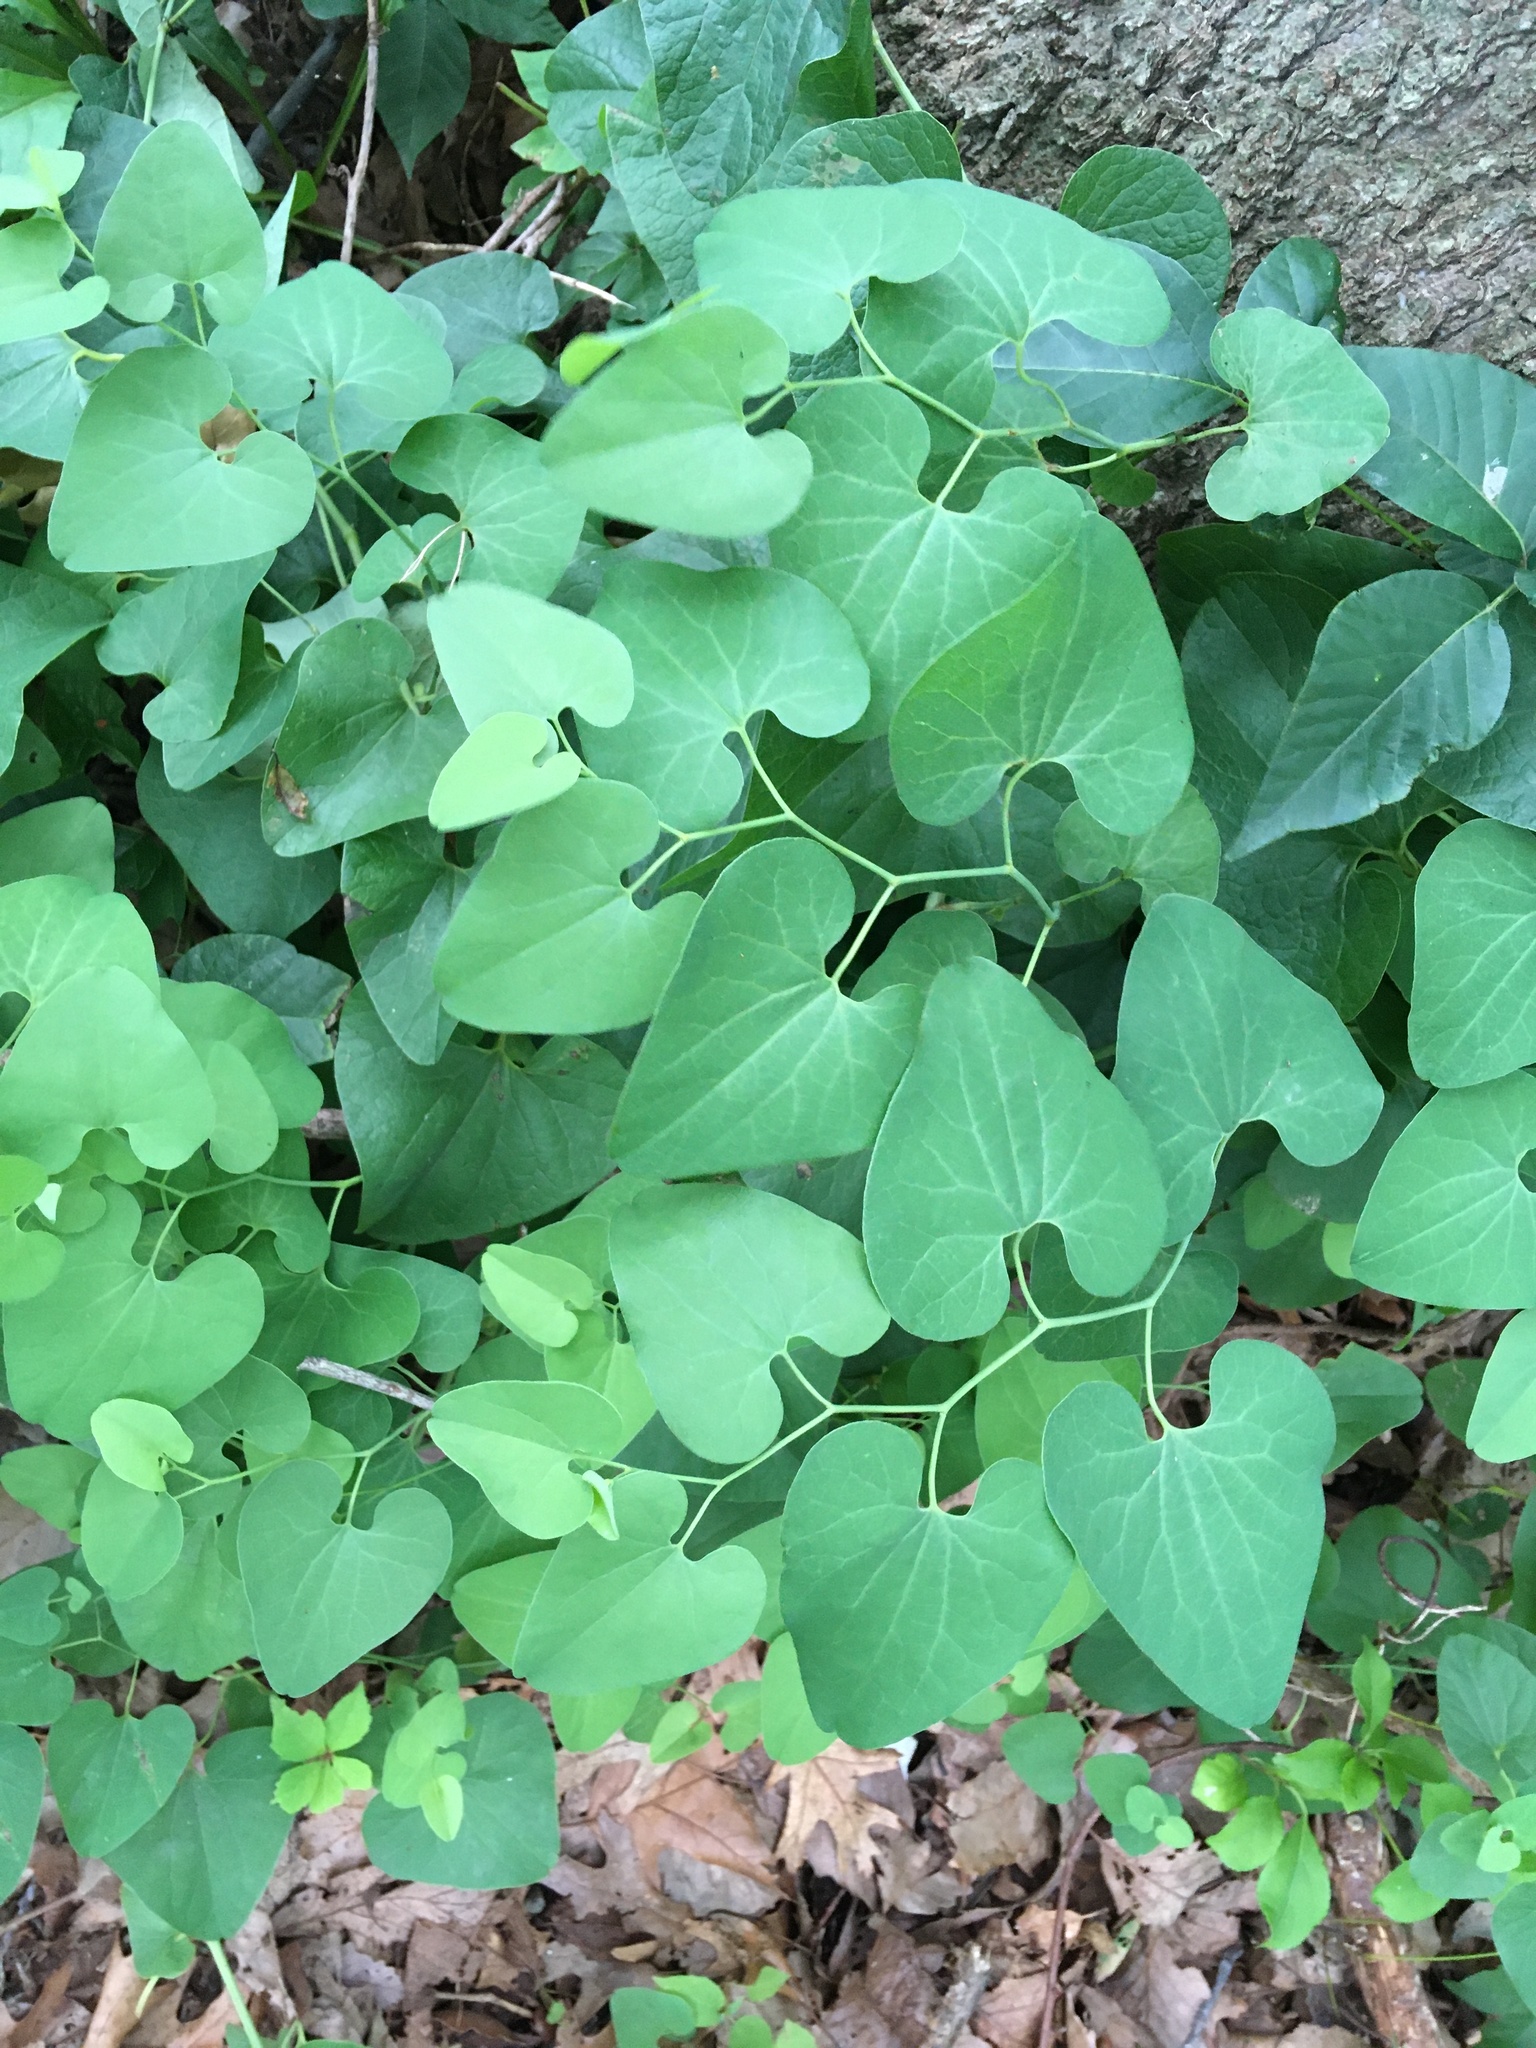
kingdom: Plantae
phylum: Tracheophyta
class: Magnoliopsida
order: Piperales
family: Aristolochiaceae
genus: Aristolochia
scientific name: Aristolochia clematitis
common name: Birthwort
